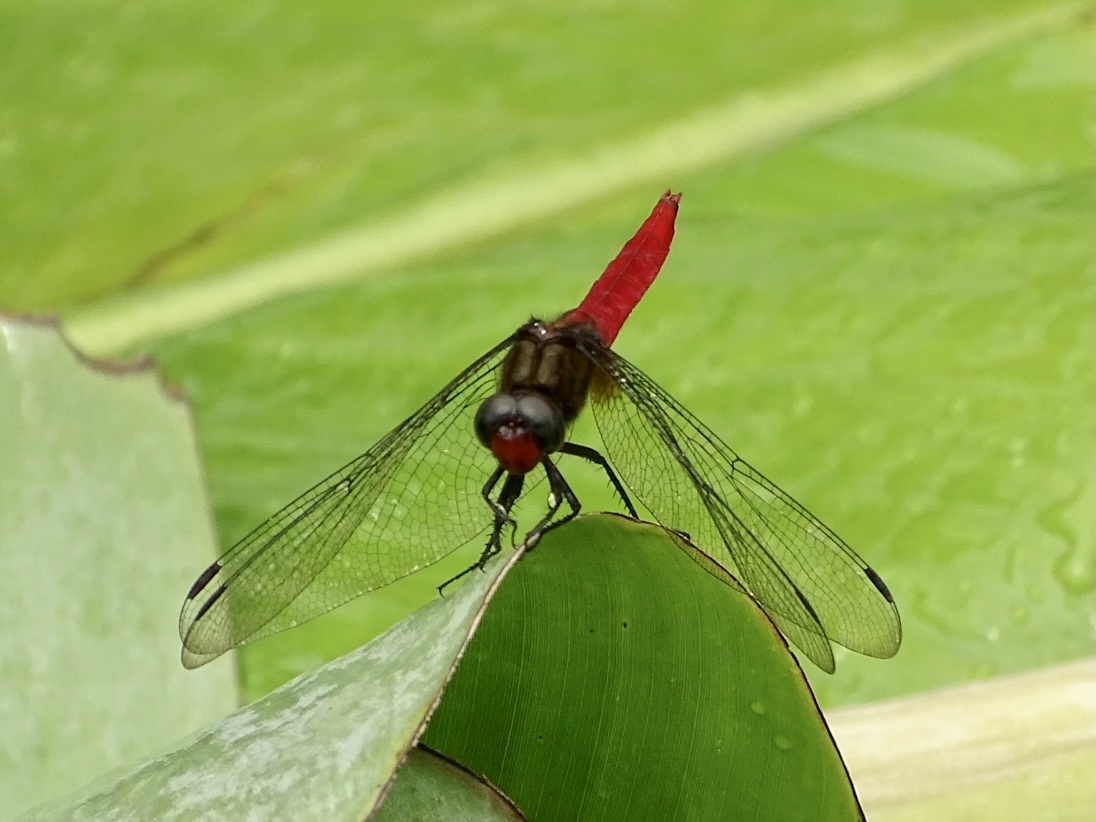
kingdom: Animalia
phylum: Arthropoda
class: Insecta
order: Odonata
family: Libellulidae
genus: Orthetrum
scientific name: Orthetrum chrysis
